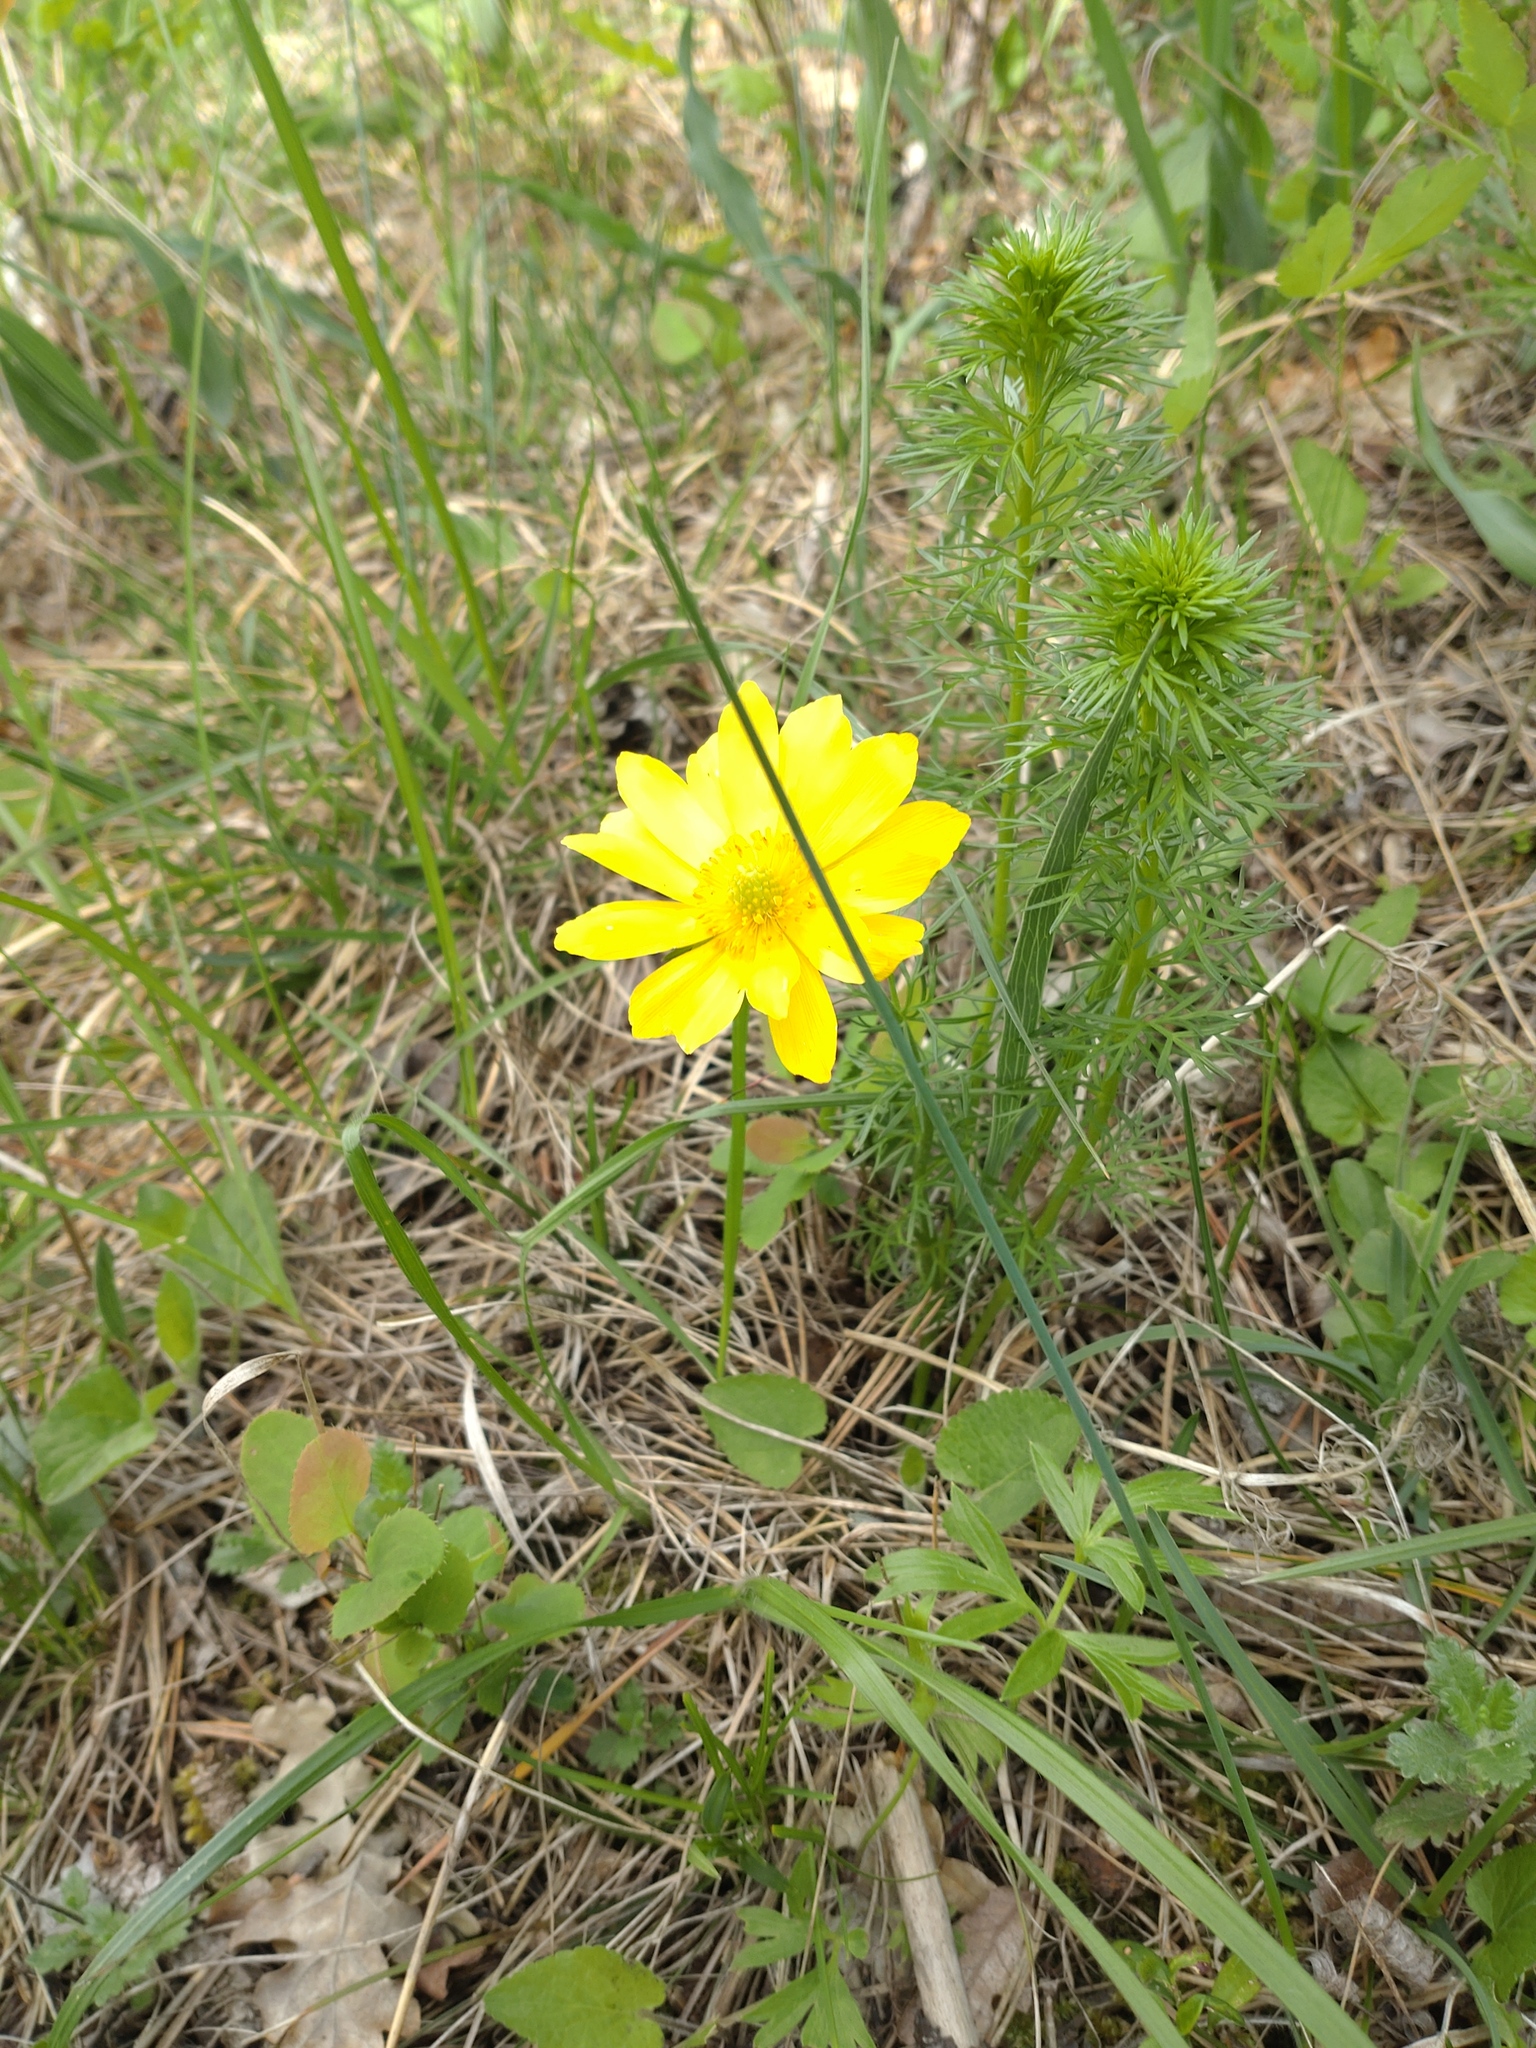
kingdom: Plantae
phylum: Tracheophyta
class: Magnoliopsida
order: Ranunculales
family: Ranunculaceae
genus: Adonis
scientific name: Adonis vernalis
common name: Yellow pheasants-eye
